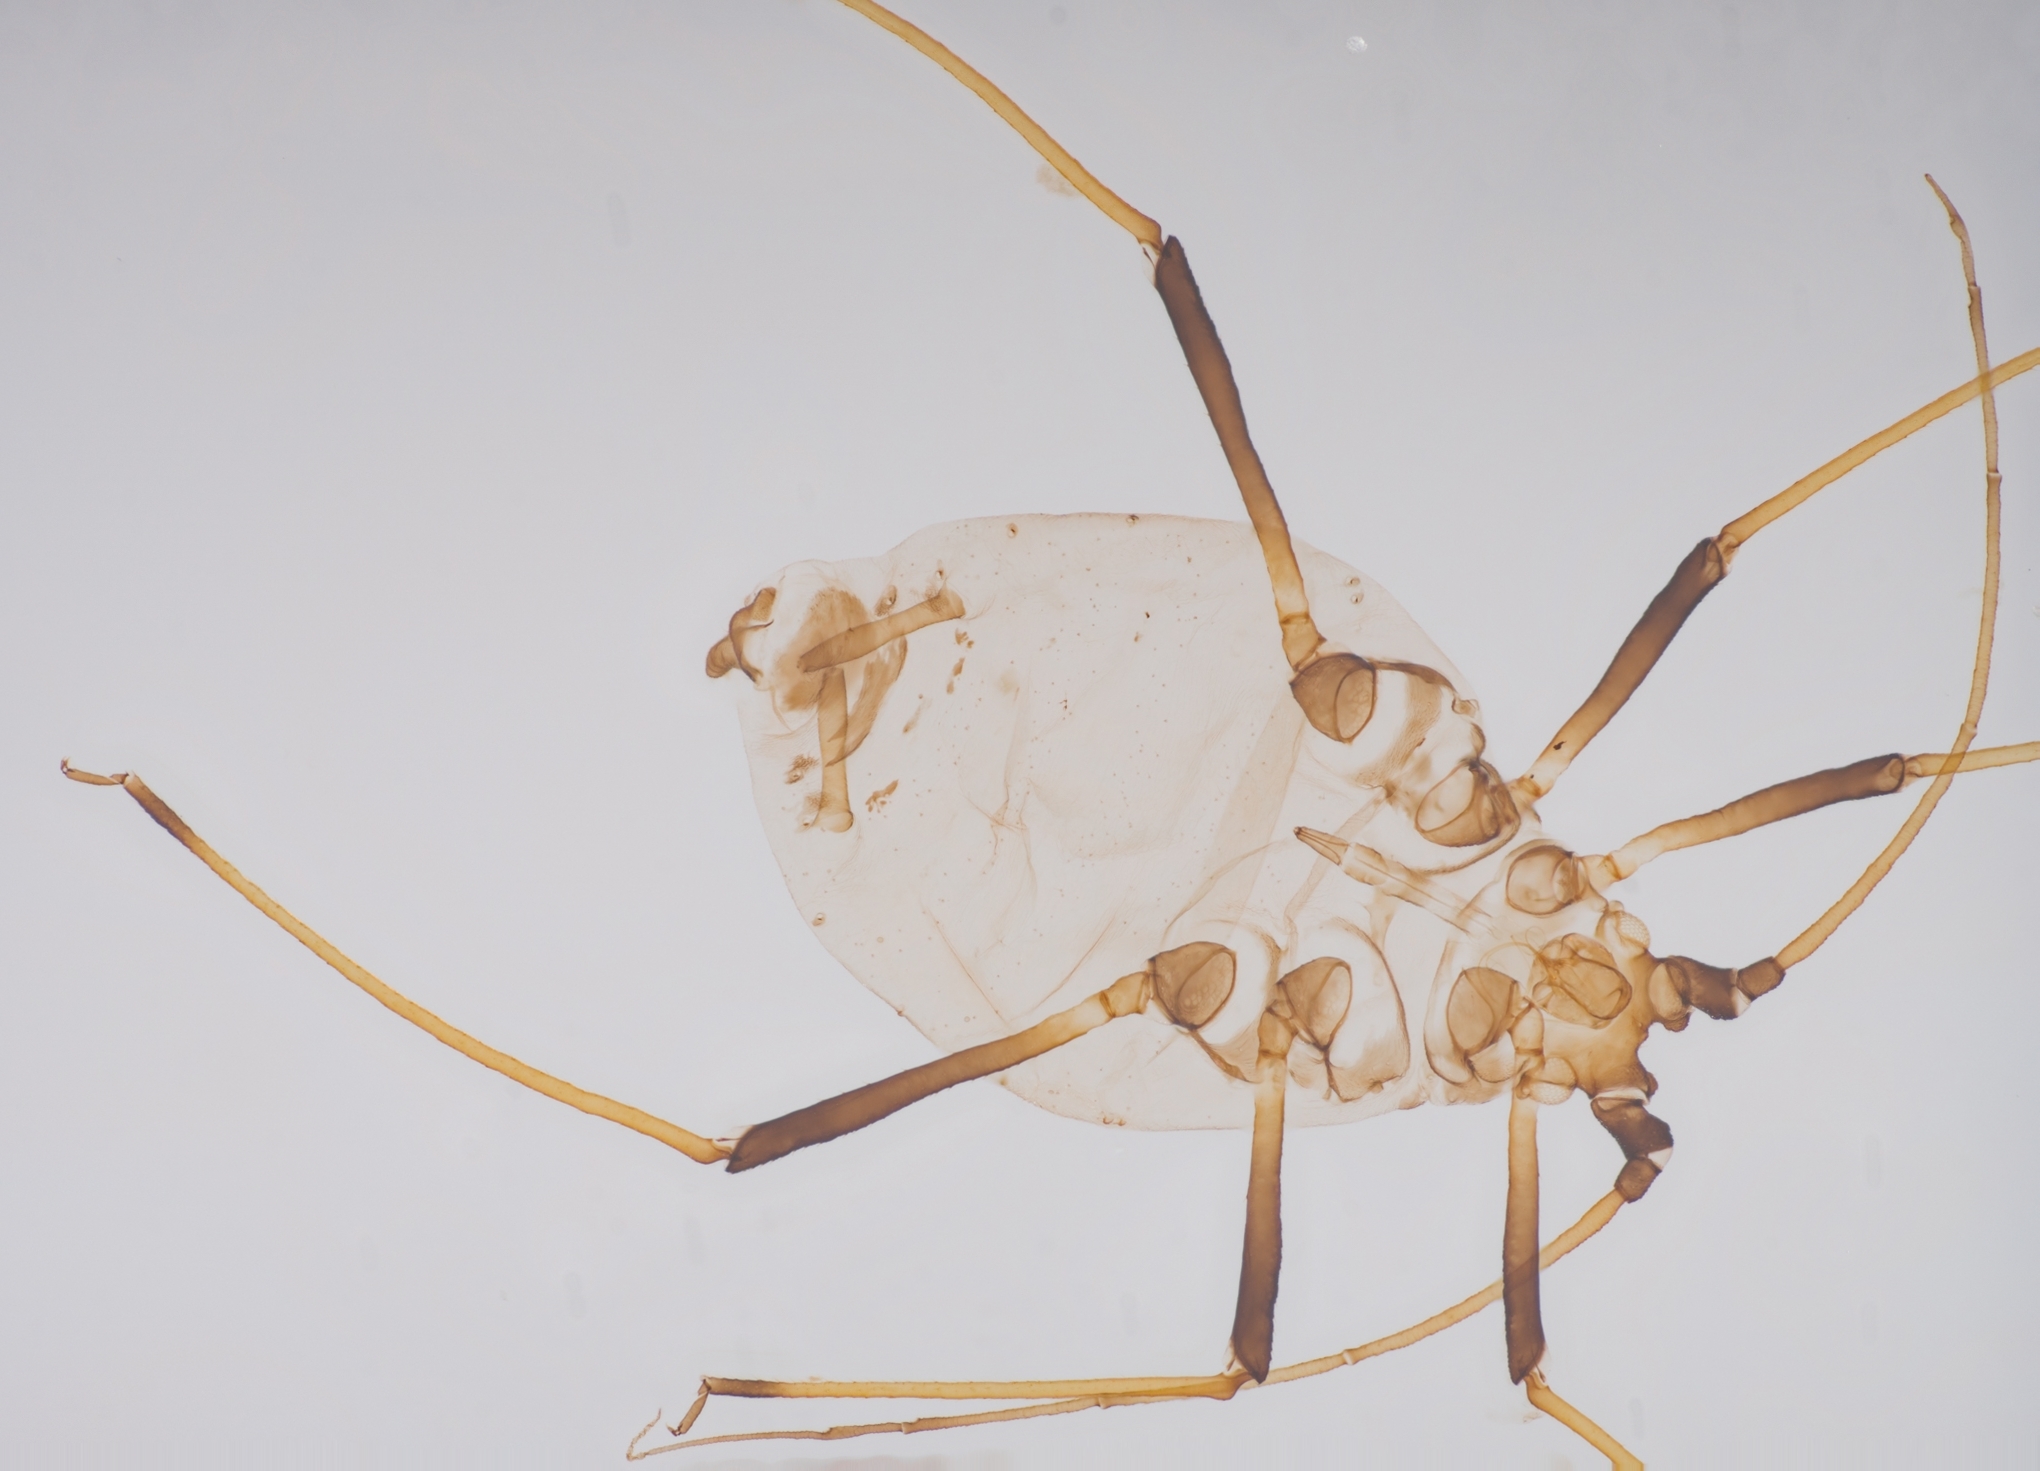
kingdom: Animalia
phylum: Arthropoda
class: Insecta
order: Hemiptera
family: Aphididae
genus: Neotoxoptera
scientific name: Neotoxoptera formosana
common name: Onion aphid
